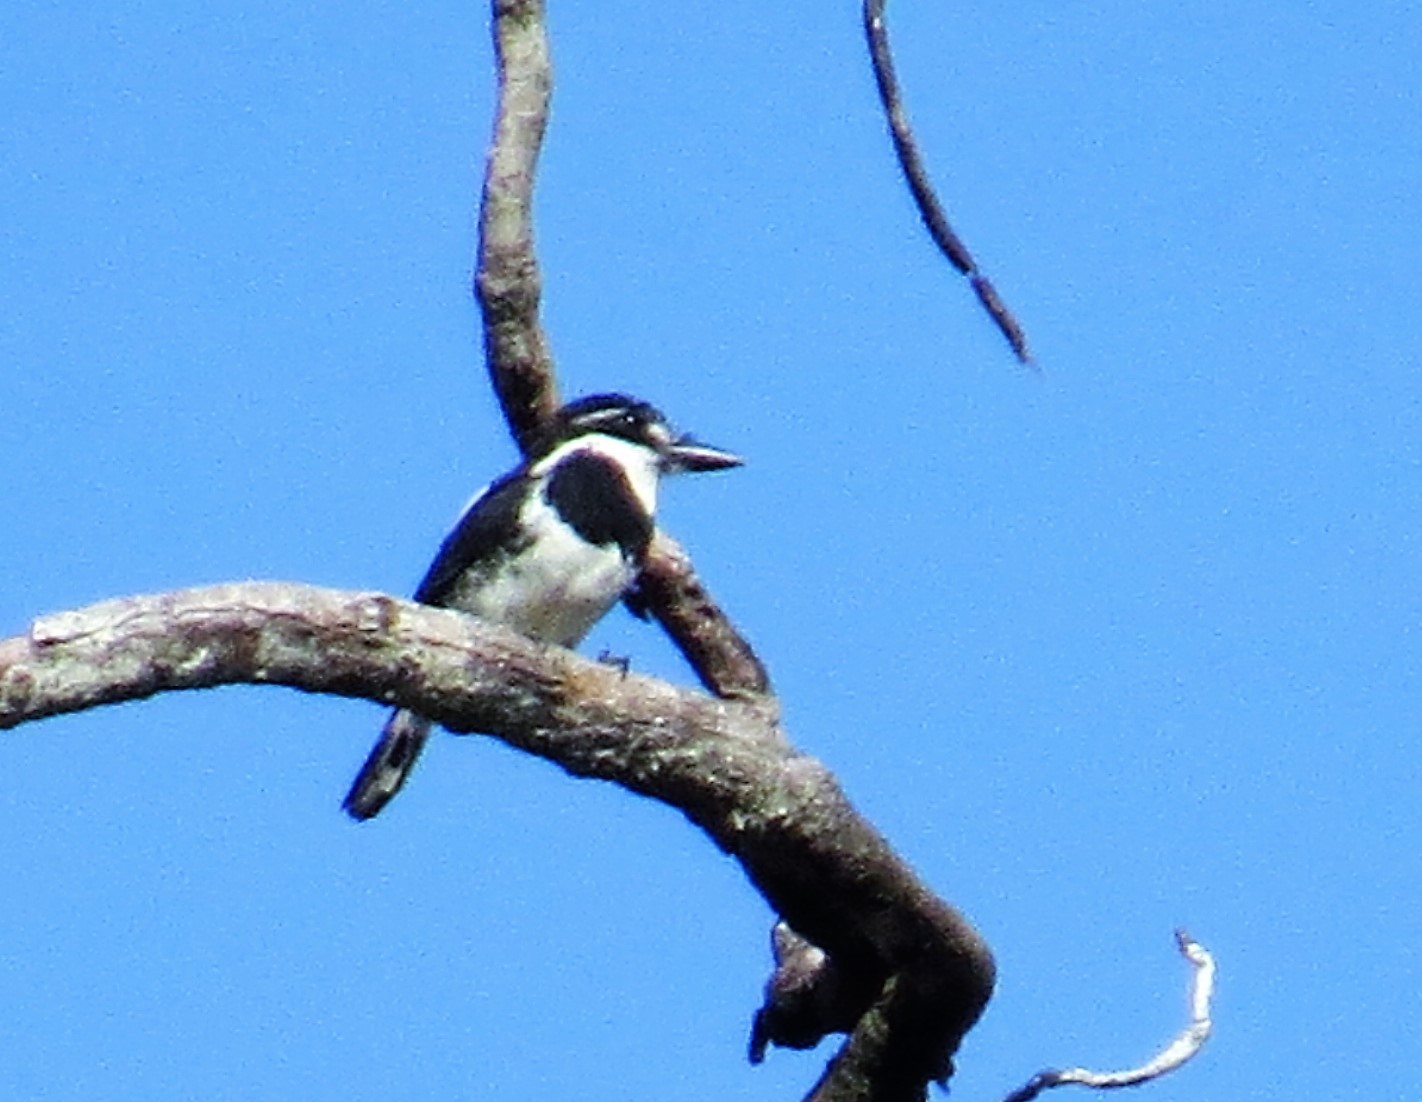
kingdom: Animalia
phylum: Chordata
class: Aves
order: Piciformes
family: Bucconidae
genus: Notharchus
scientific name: Notharchus tectus
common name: Pied puffbird
